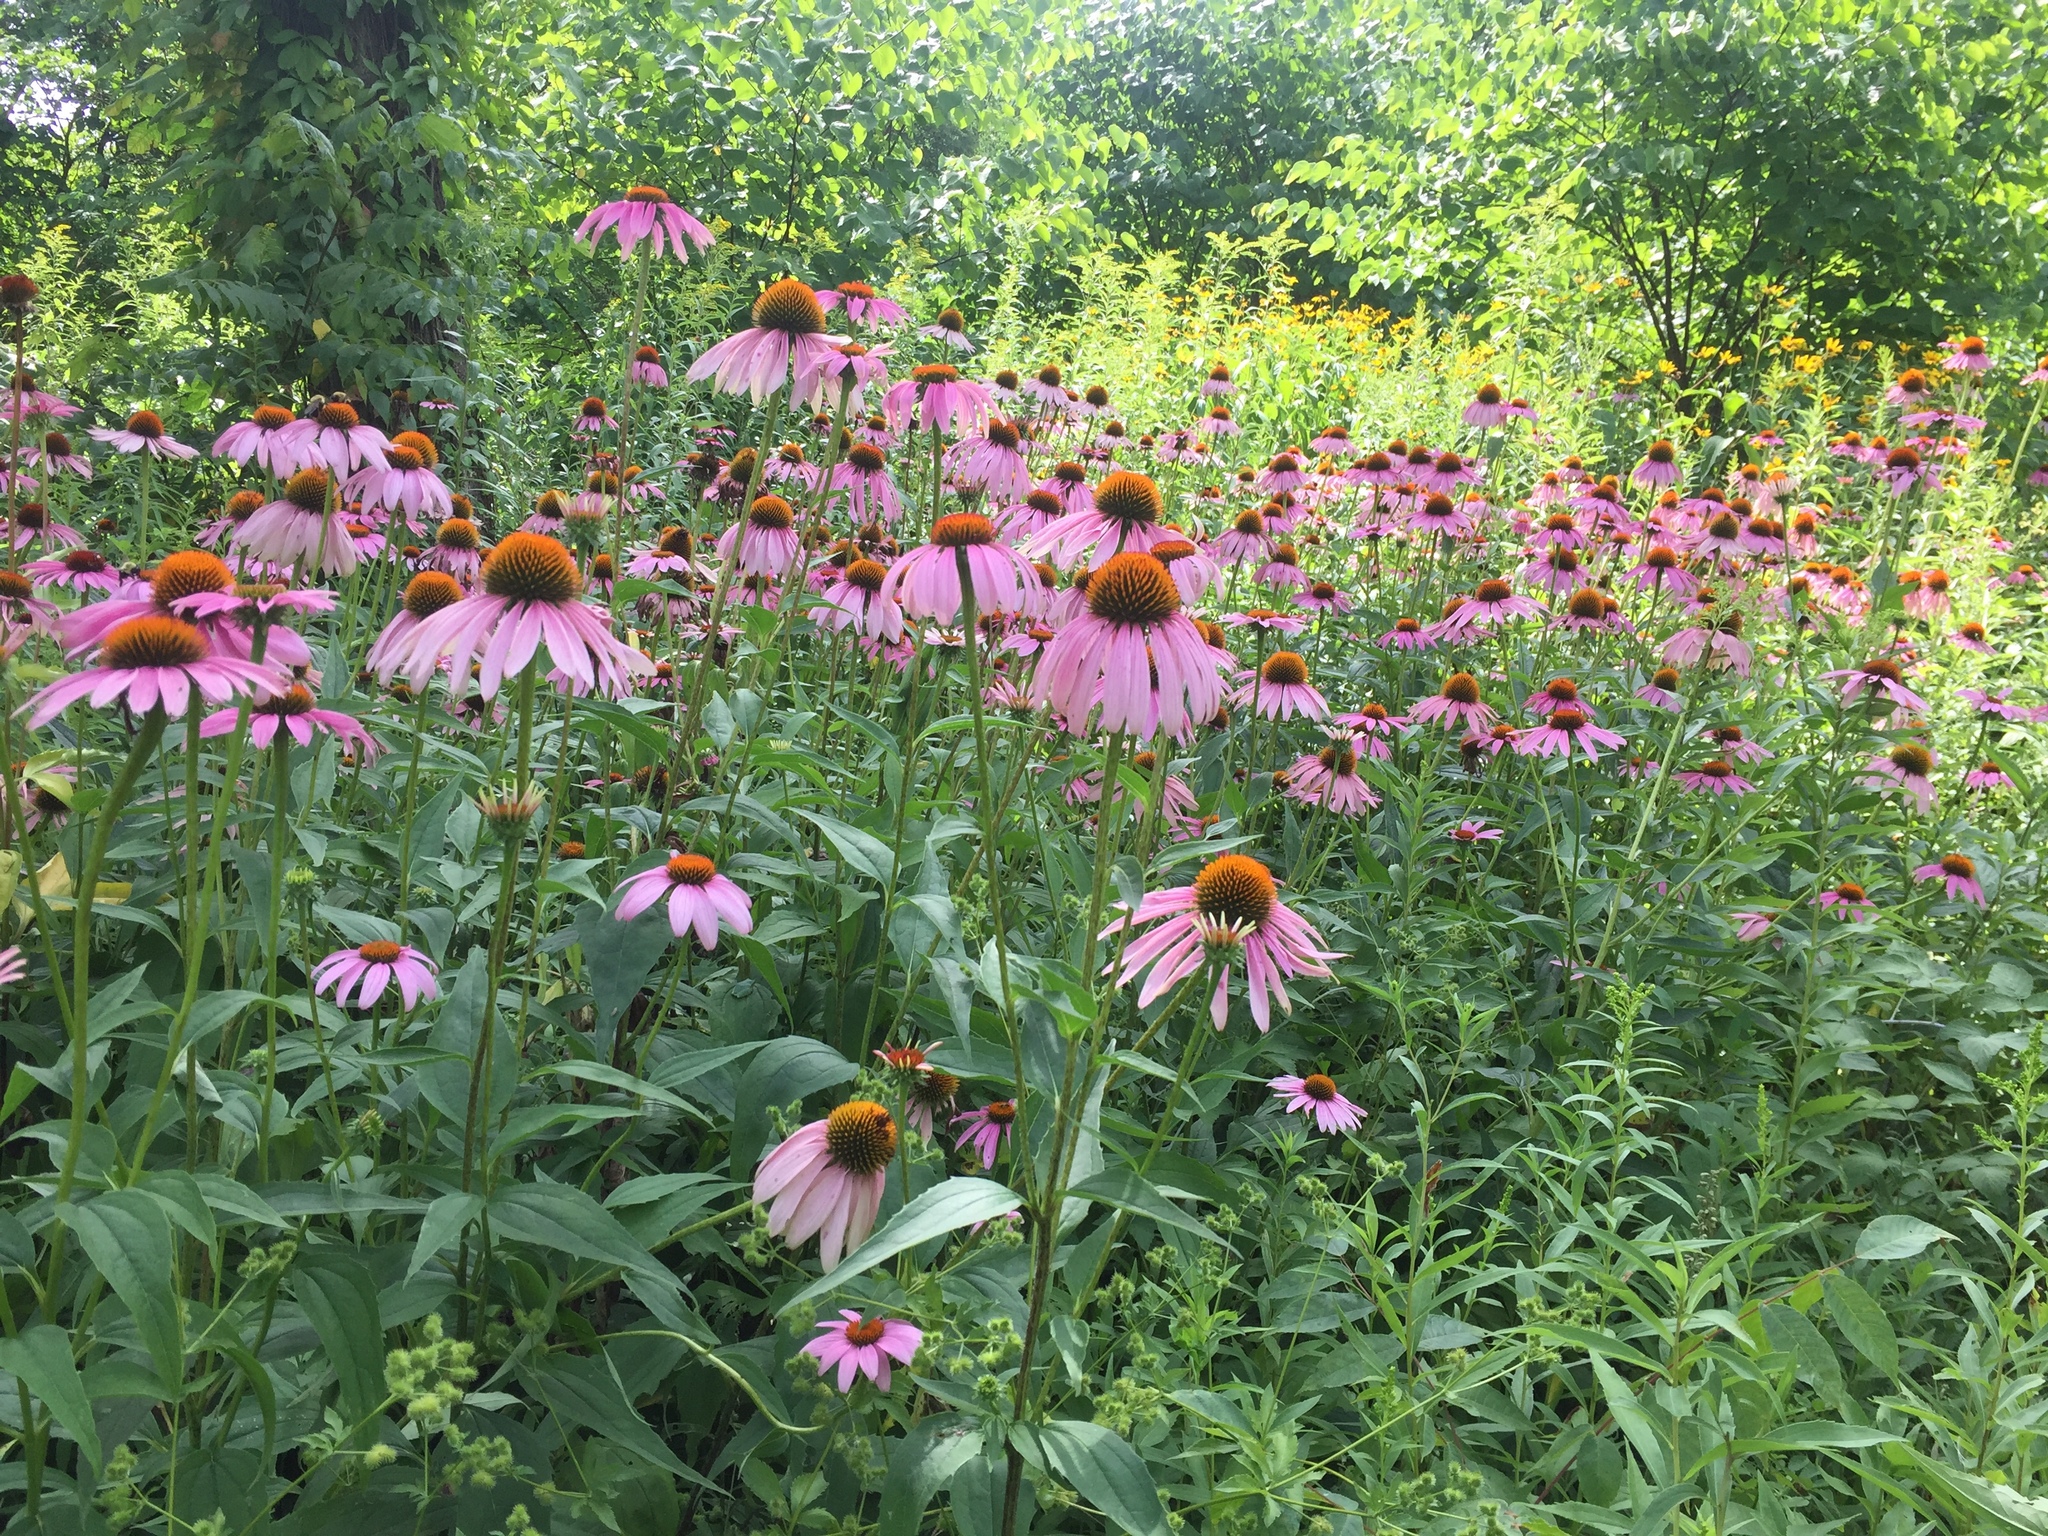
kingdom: Plantae
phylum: Tracheophyta
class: Magnoliopsida
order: Asterales
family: Asteraceae
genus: Echinacea
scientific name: Echinacea purpurea
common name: Broad-leaved purple coneflower
